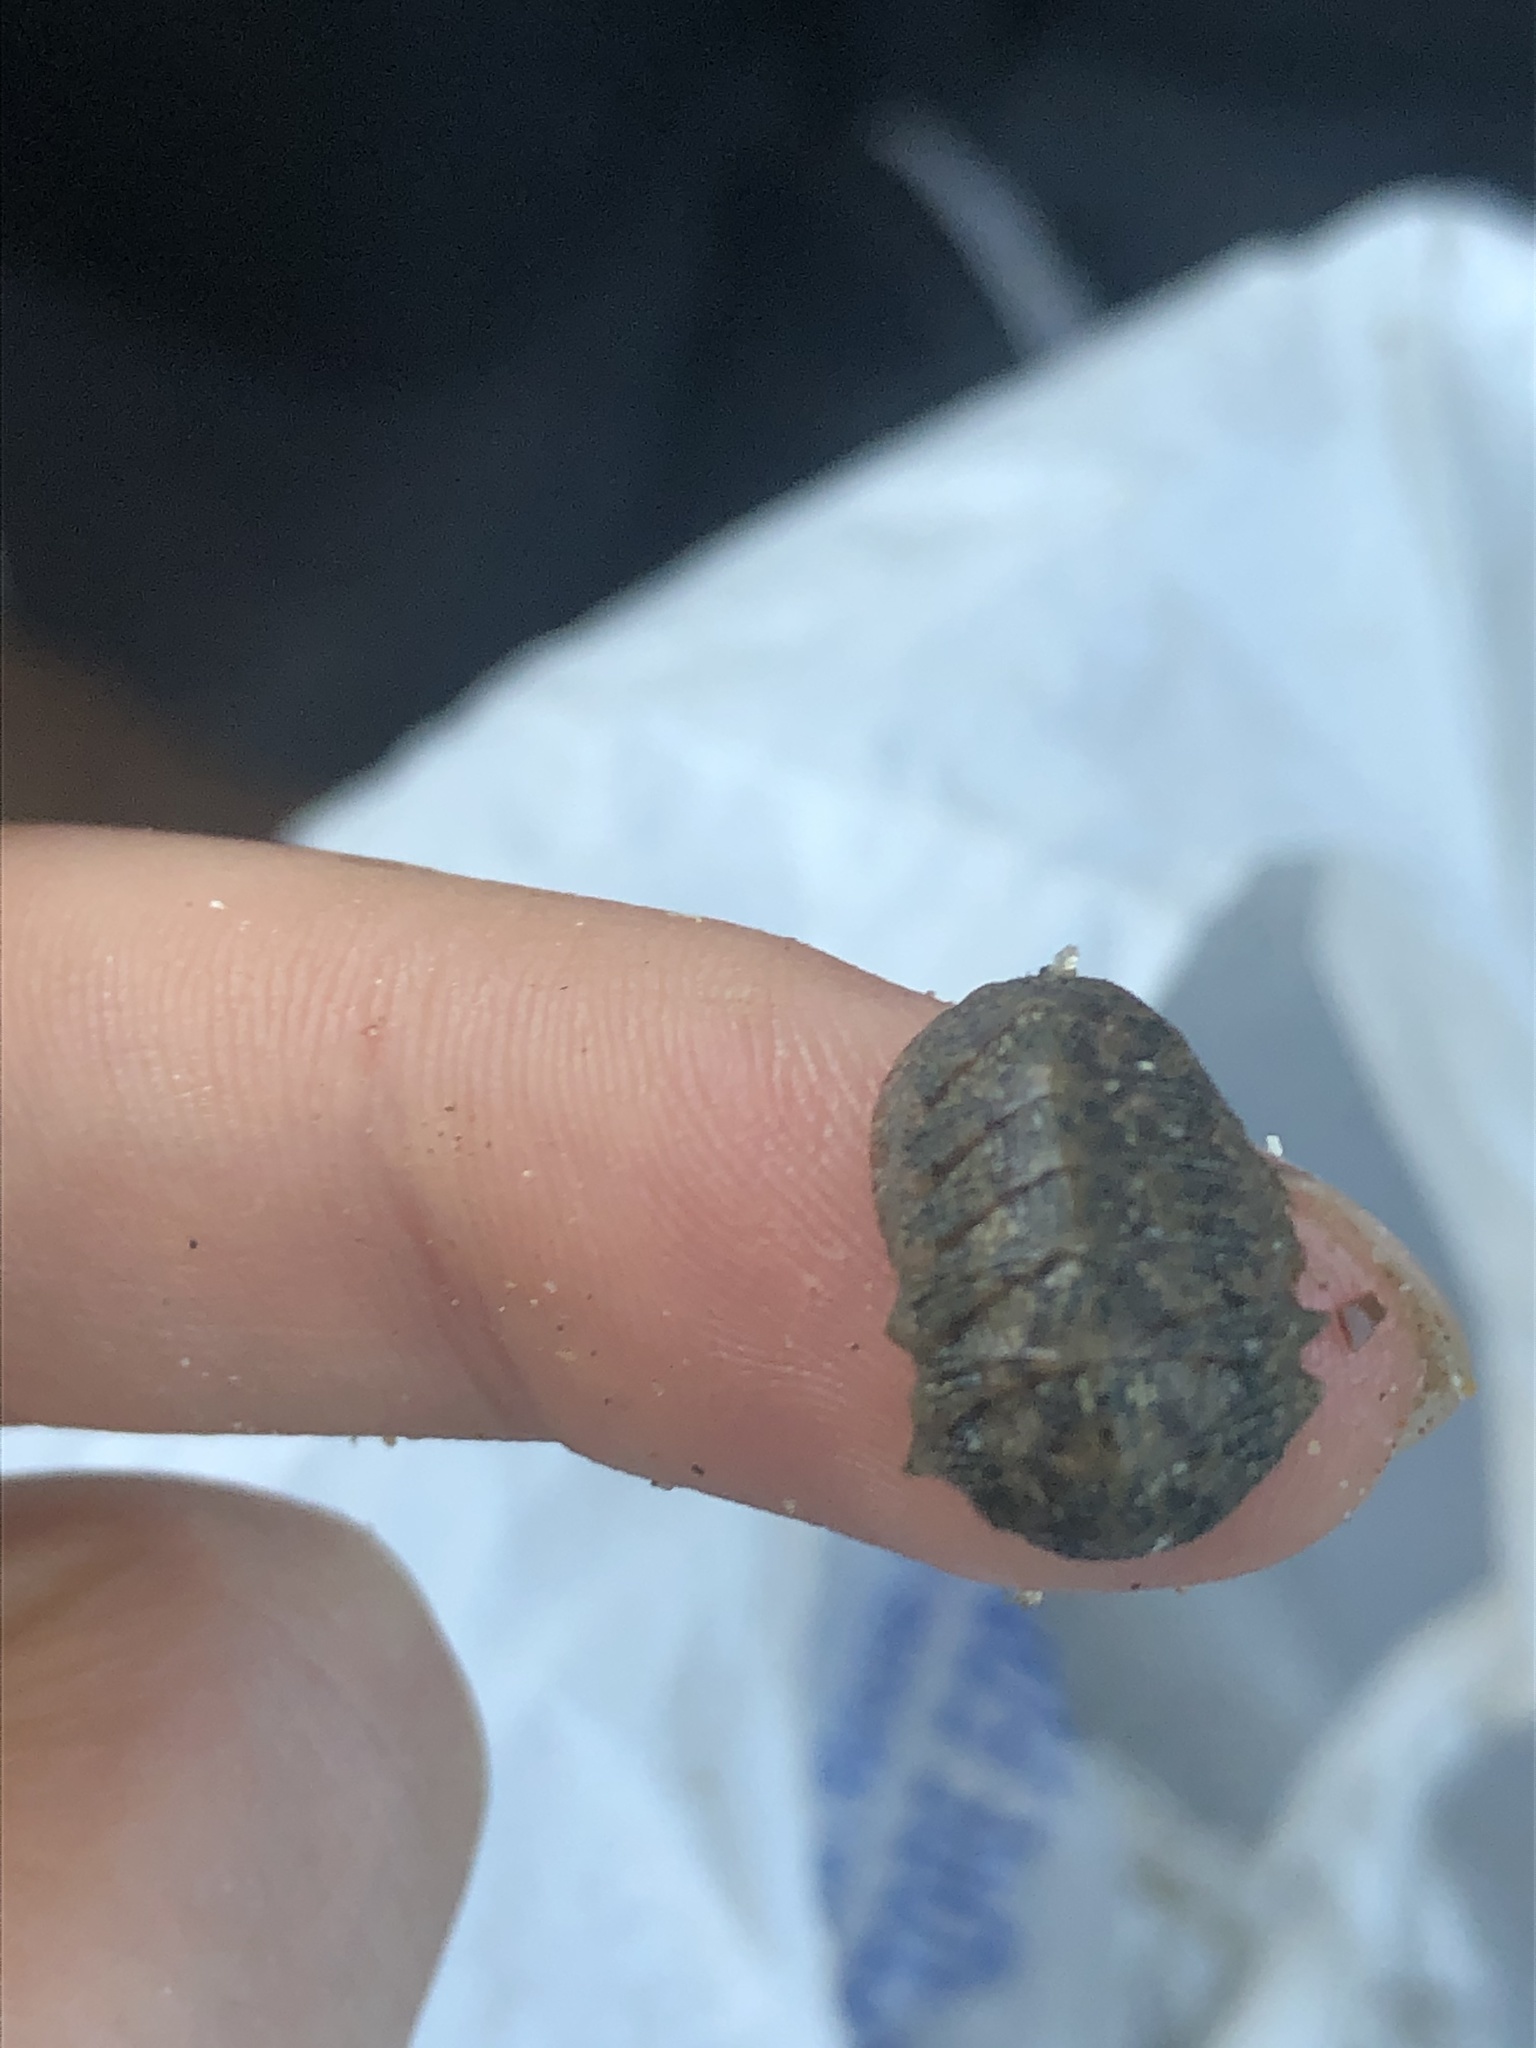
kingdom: Animalia
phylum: Mollusca
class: Polyplacophora
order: Chitonida
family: Ischnochitonidae
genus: Lepidozona
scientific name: Lepidozona pectinulata
